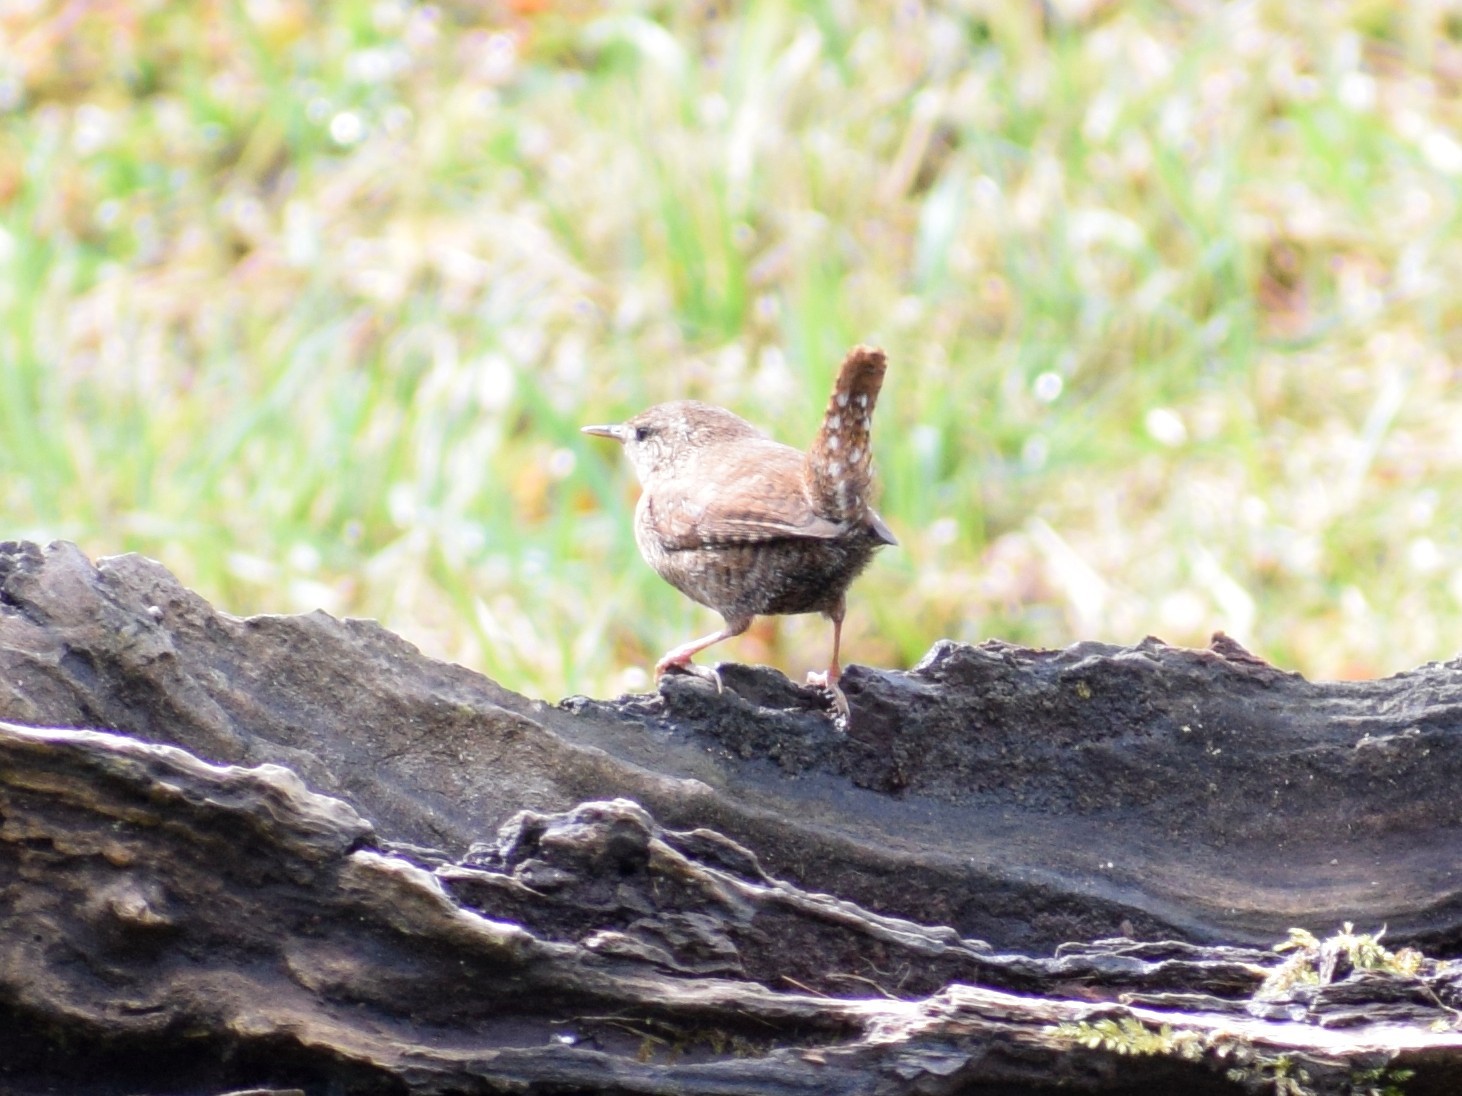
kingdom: Animalia
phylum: Chordata
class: Aves
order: Passeriformes
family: Troglodytidae
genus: Troglodytes
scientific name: Troglodytes troglodytes
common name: Eurasian wren
